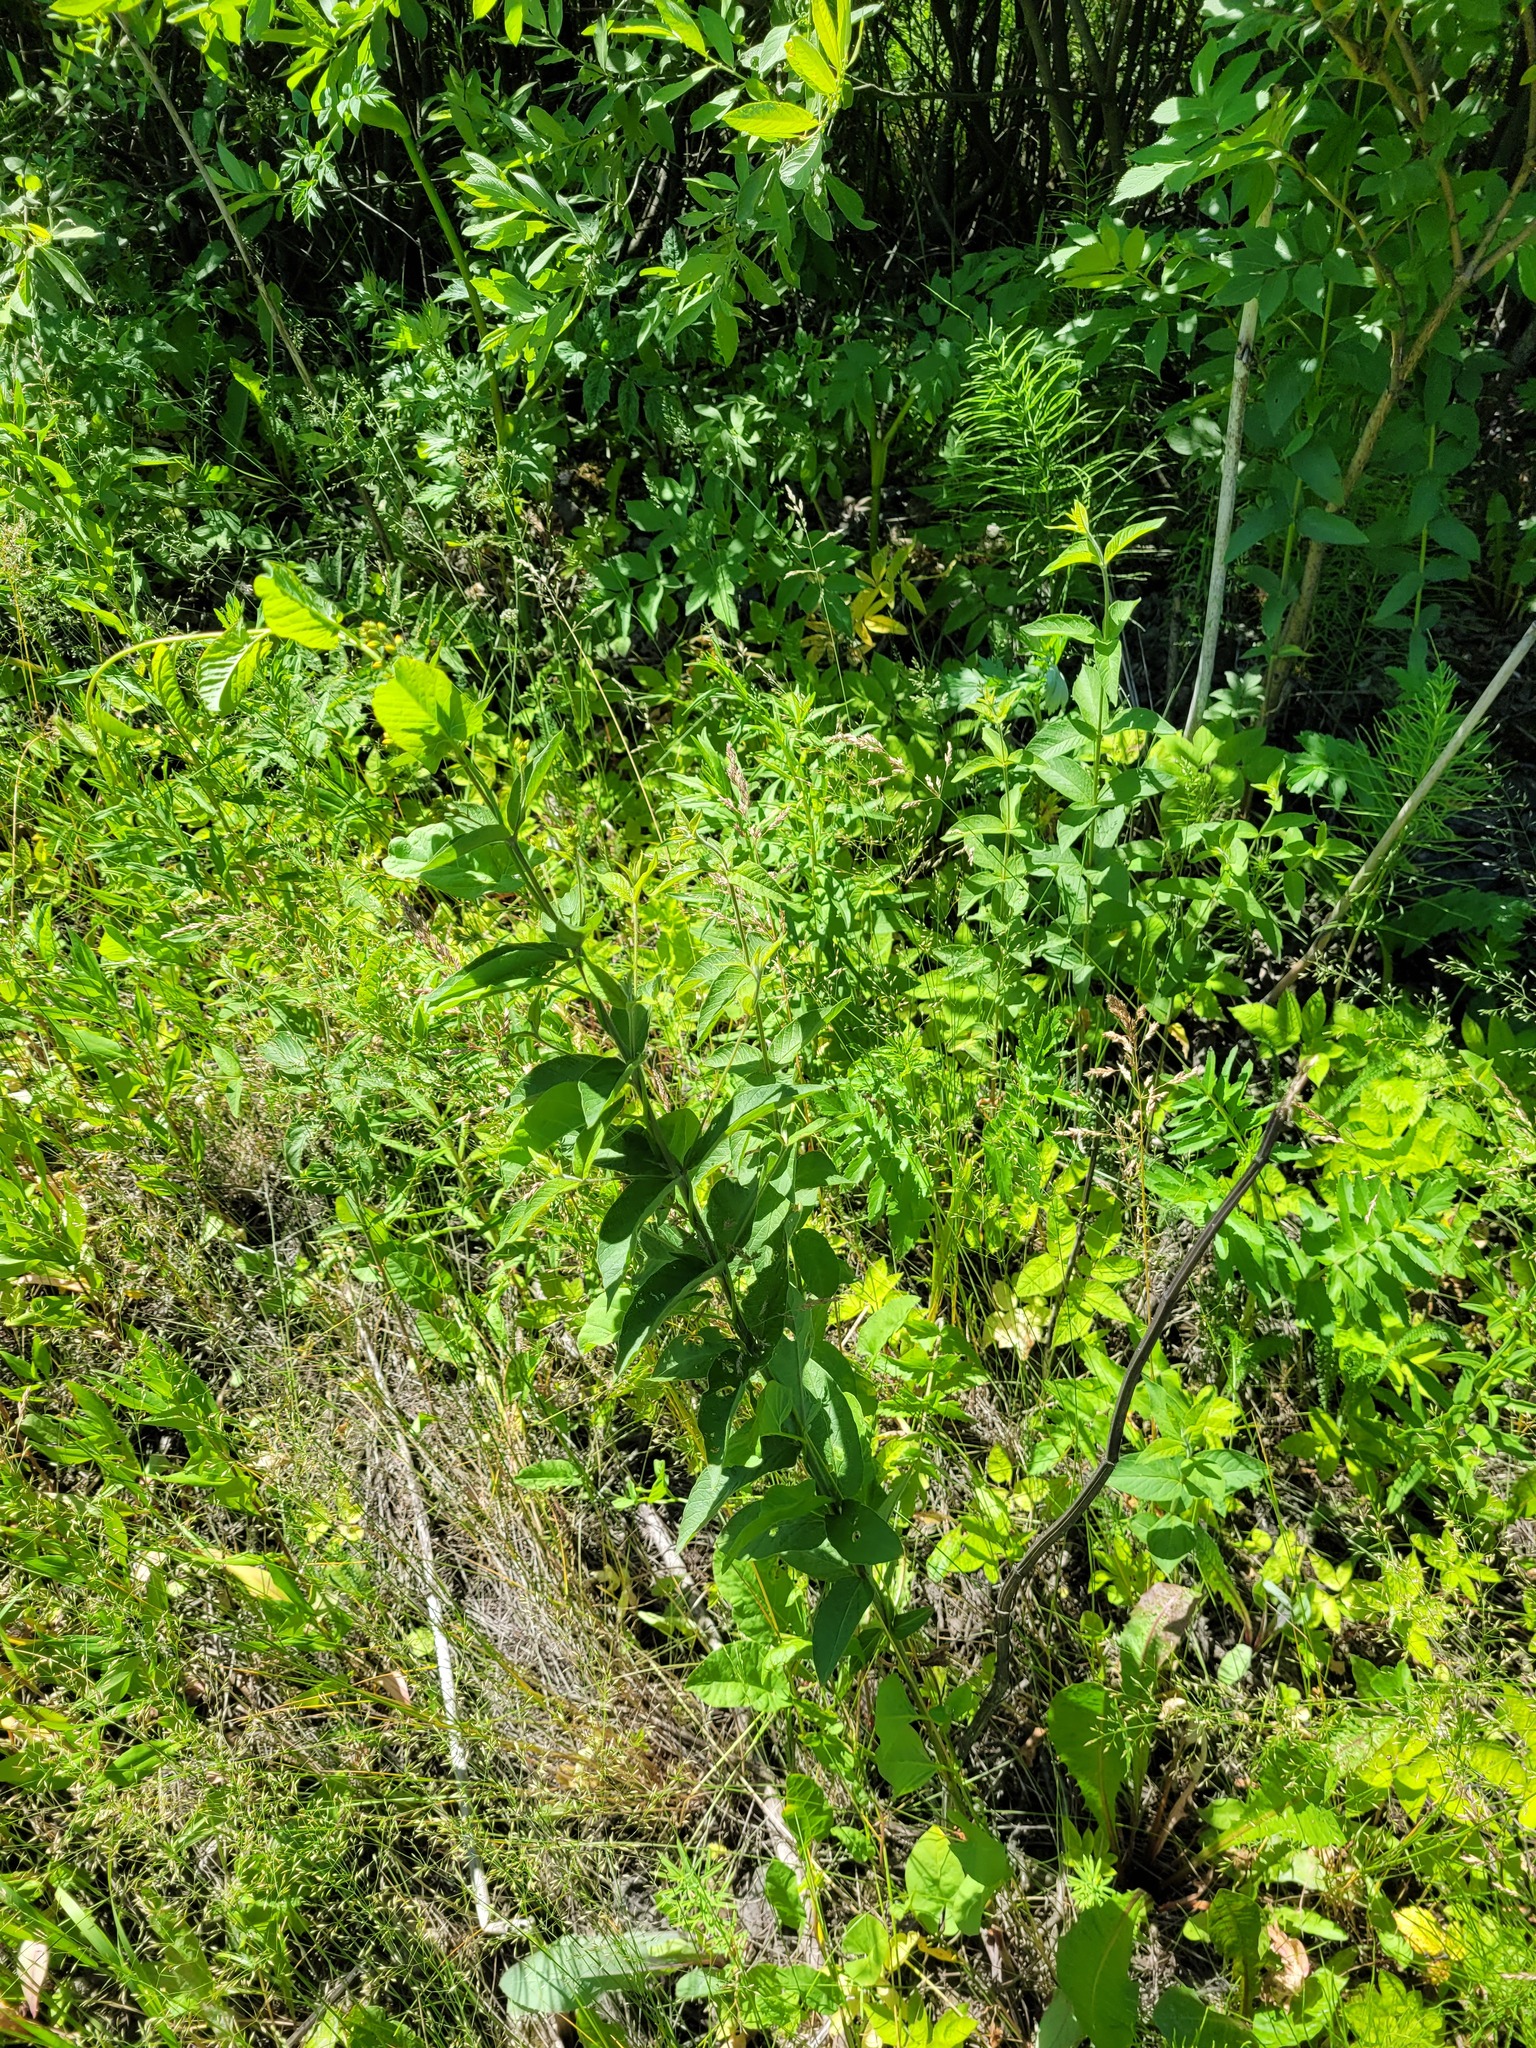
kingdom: Plantae
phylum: Tracheophyta
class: Magnoliopsida
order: Ericales
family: Primulaceae
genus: Lysimachia
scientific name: Lysimachia vulgaris
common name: Yellow loosestrife
